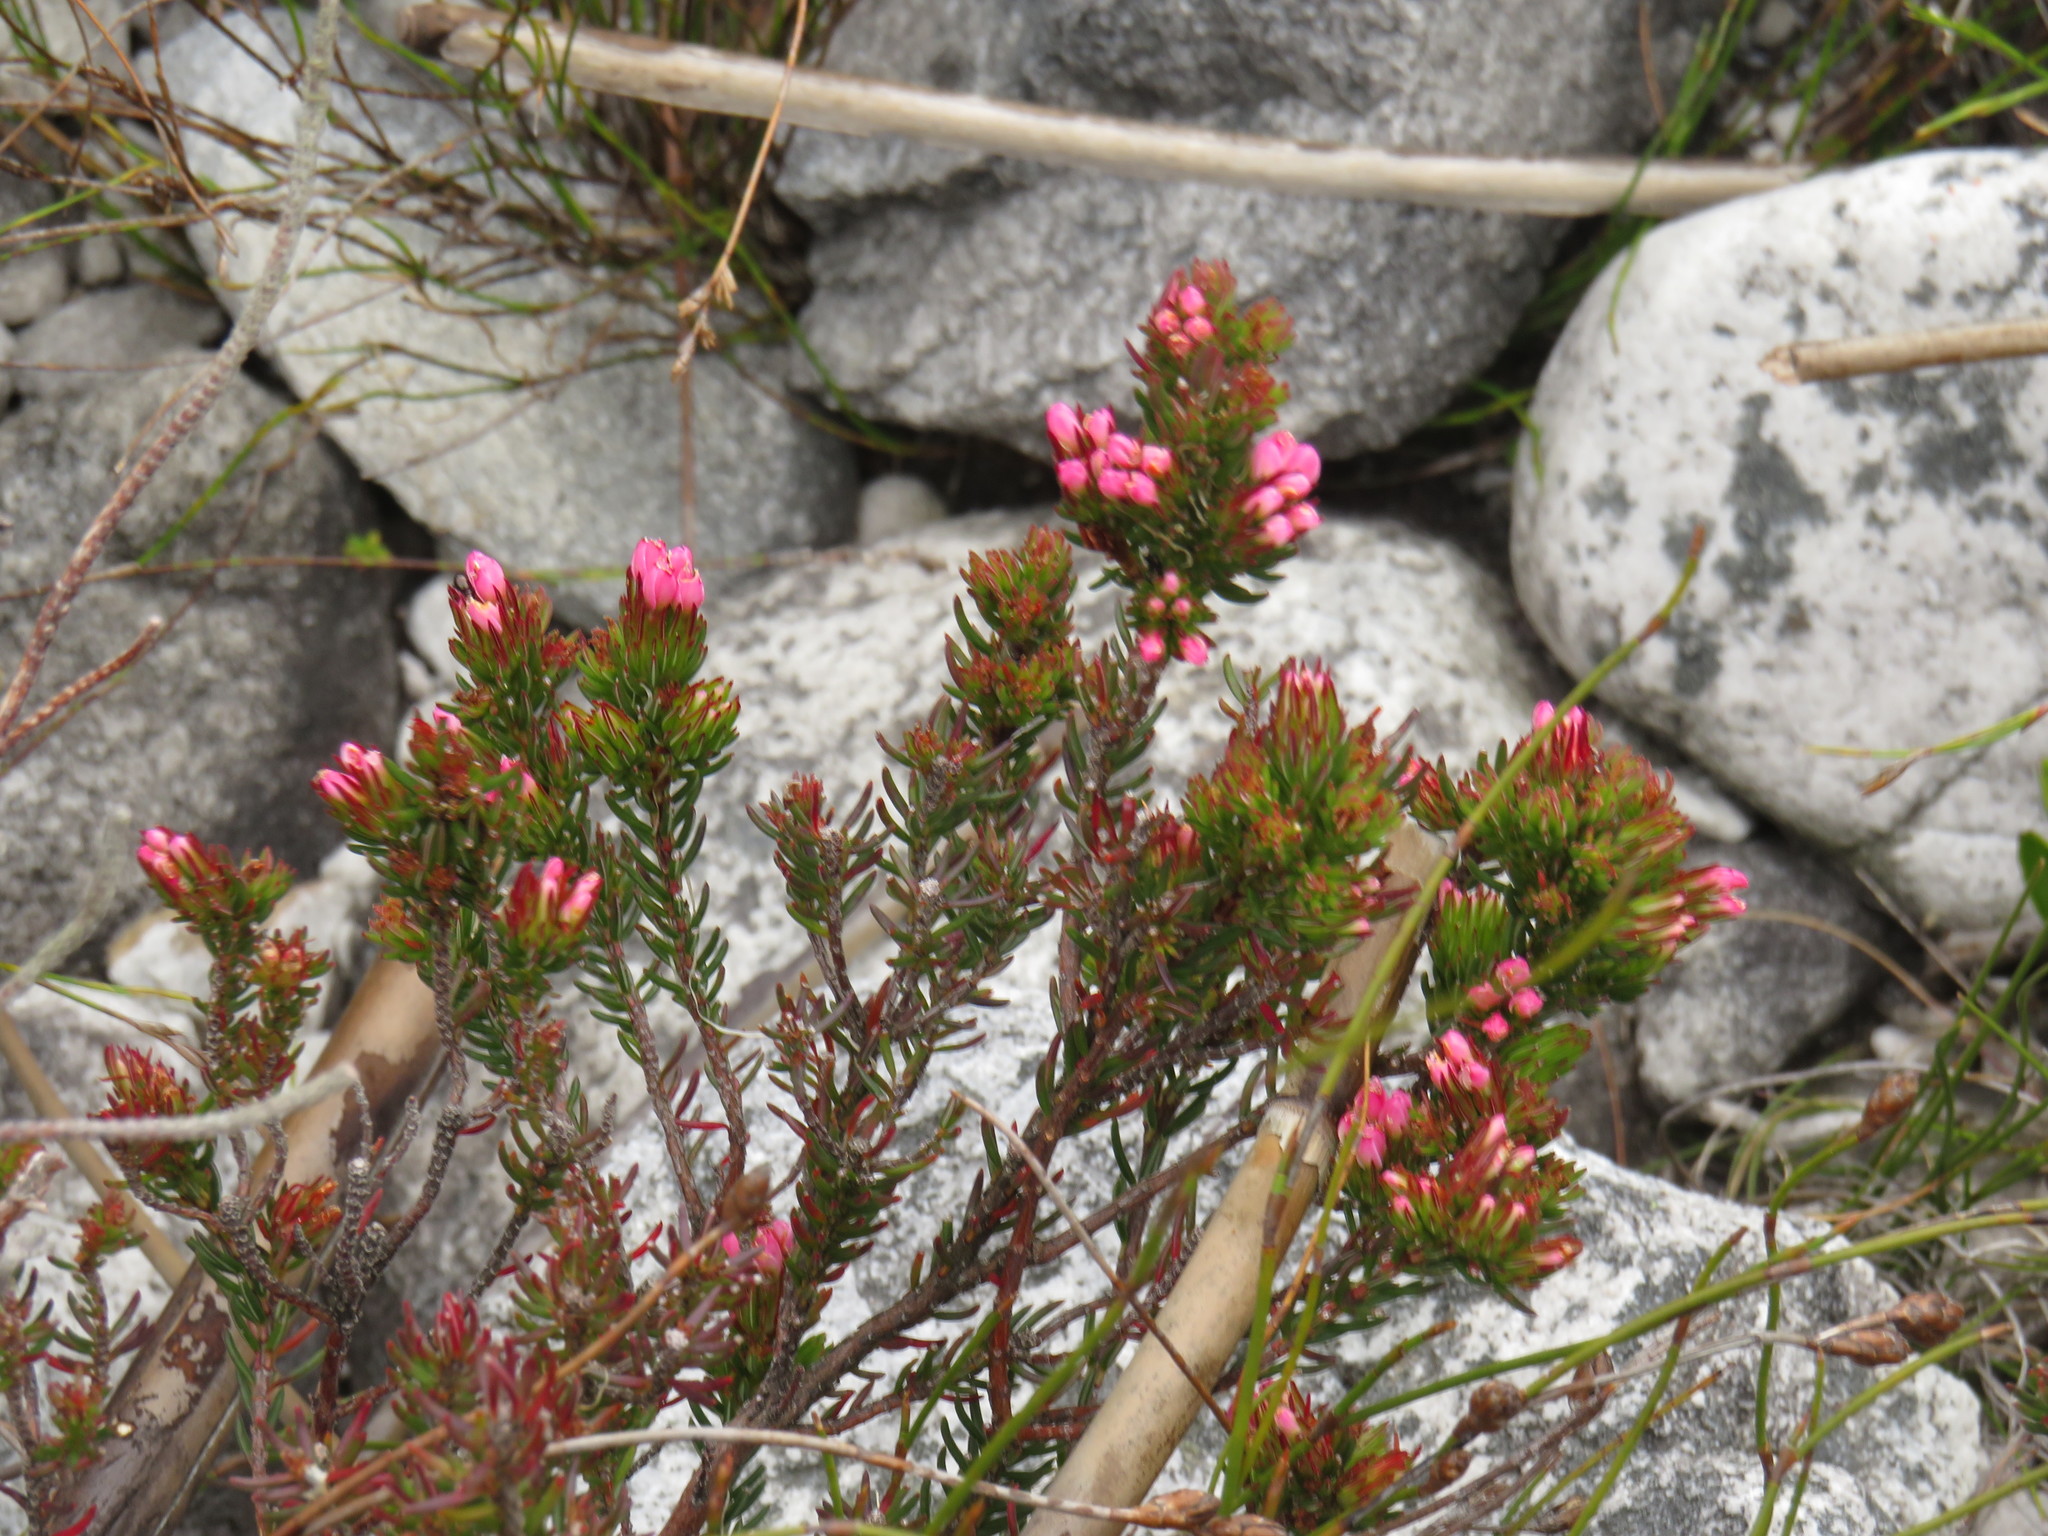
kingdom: Plantae
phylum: Tracheophyta
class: Magnoliopsida
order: Ericales
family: Ericaceae
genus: Erica
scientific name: Erica fastigiata
